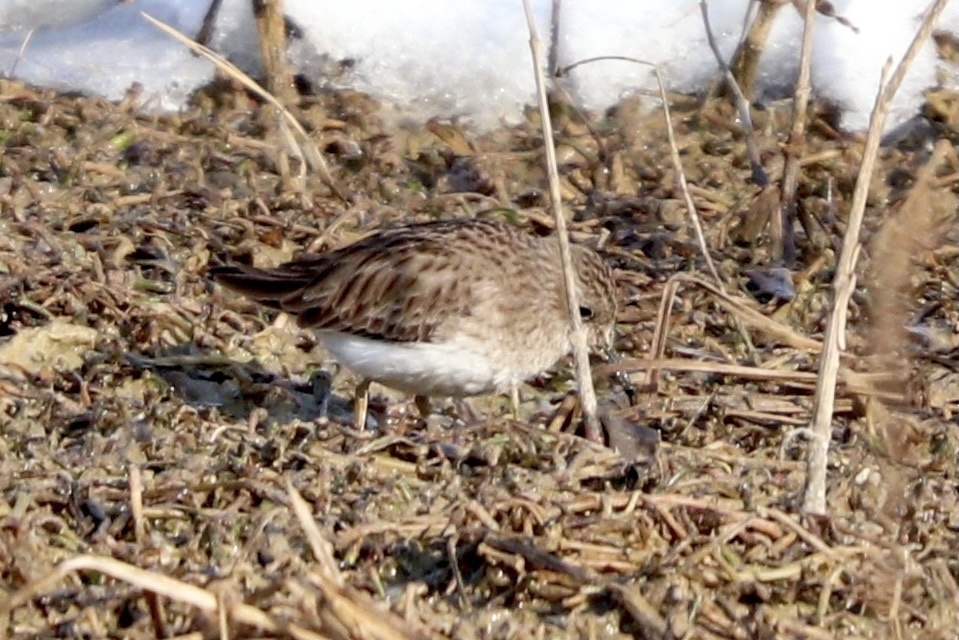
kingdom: Animalia
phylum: Chordata
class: Aves
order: Charadriiformes
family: Scolopacidae
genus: Calidris
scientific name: Calidris minutilla
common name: Least sandpiper
